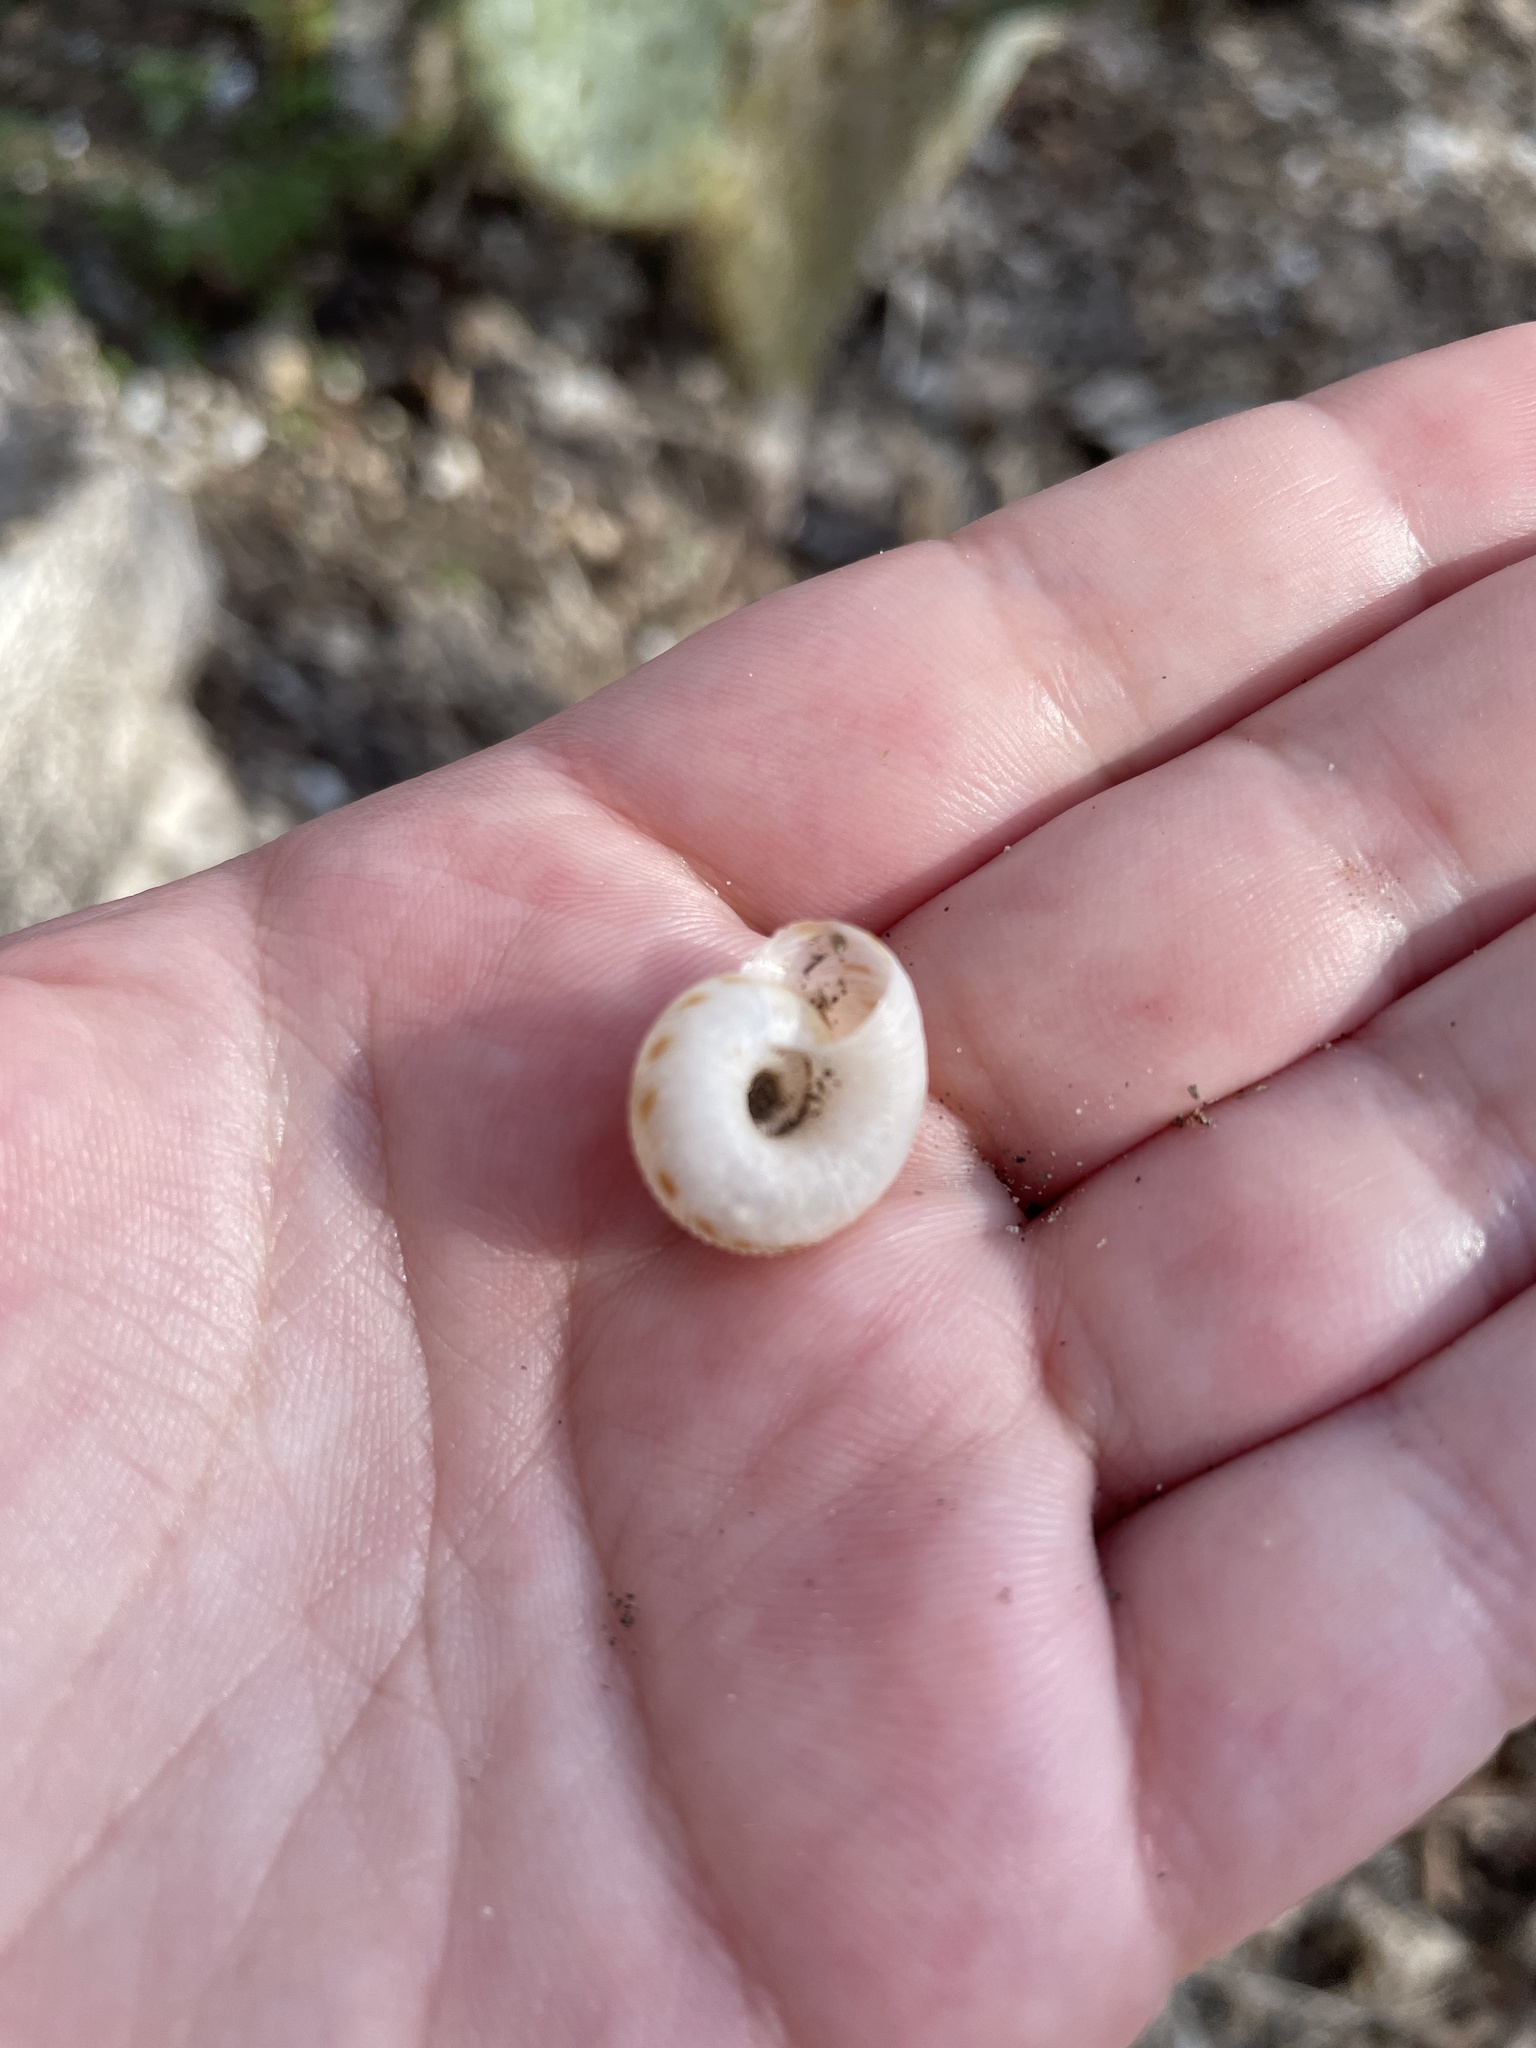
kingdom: Animalia
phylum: Mollusca
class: Gastropoda
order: Stylommatophora
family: Discidae
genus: Anguispira
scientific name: Anguispira strongylodes
